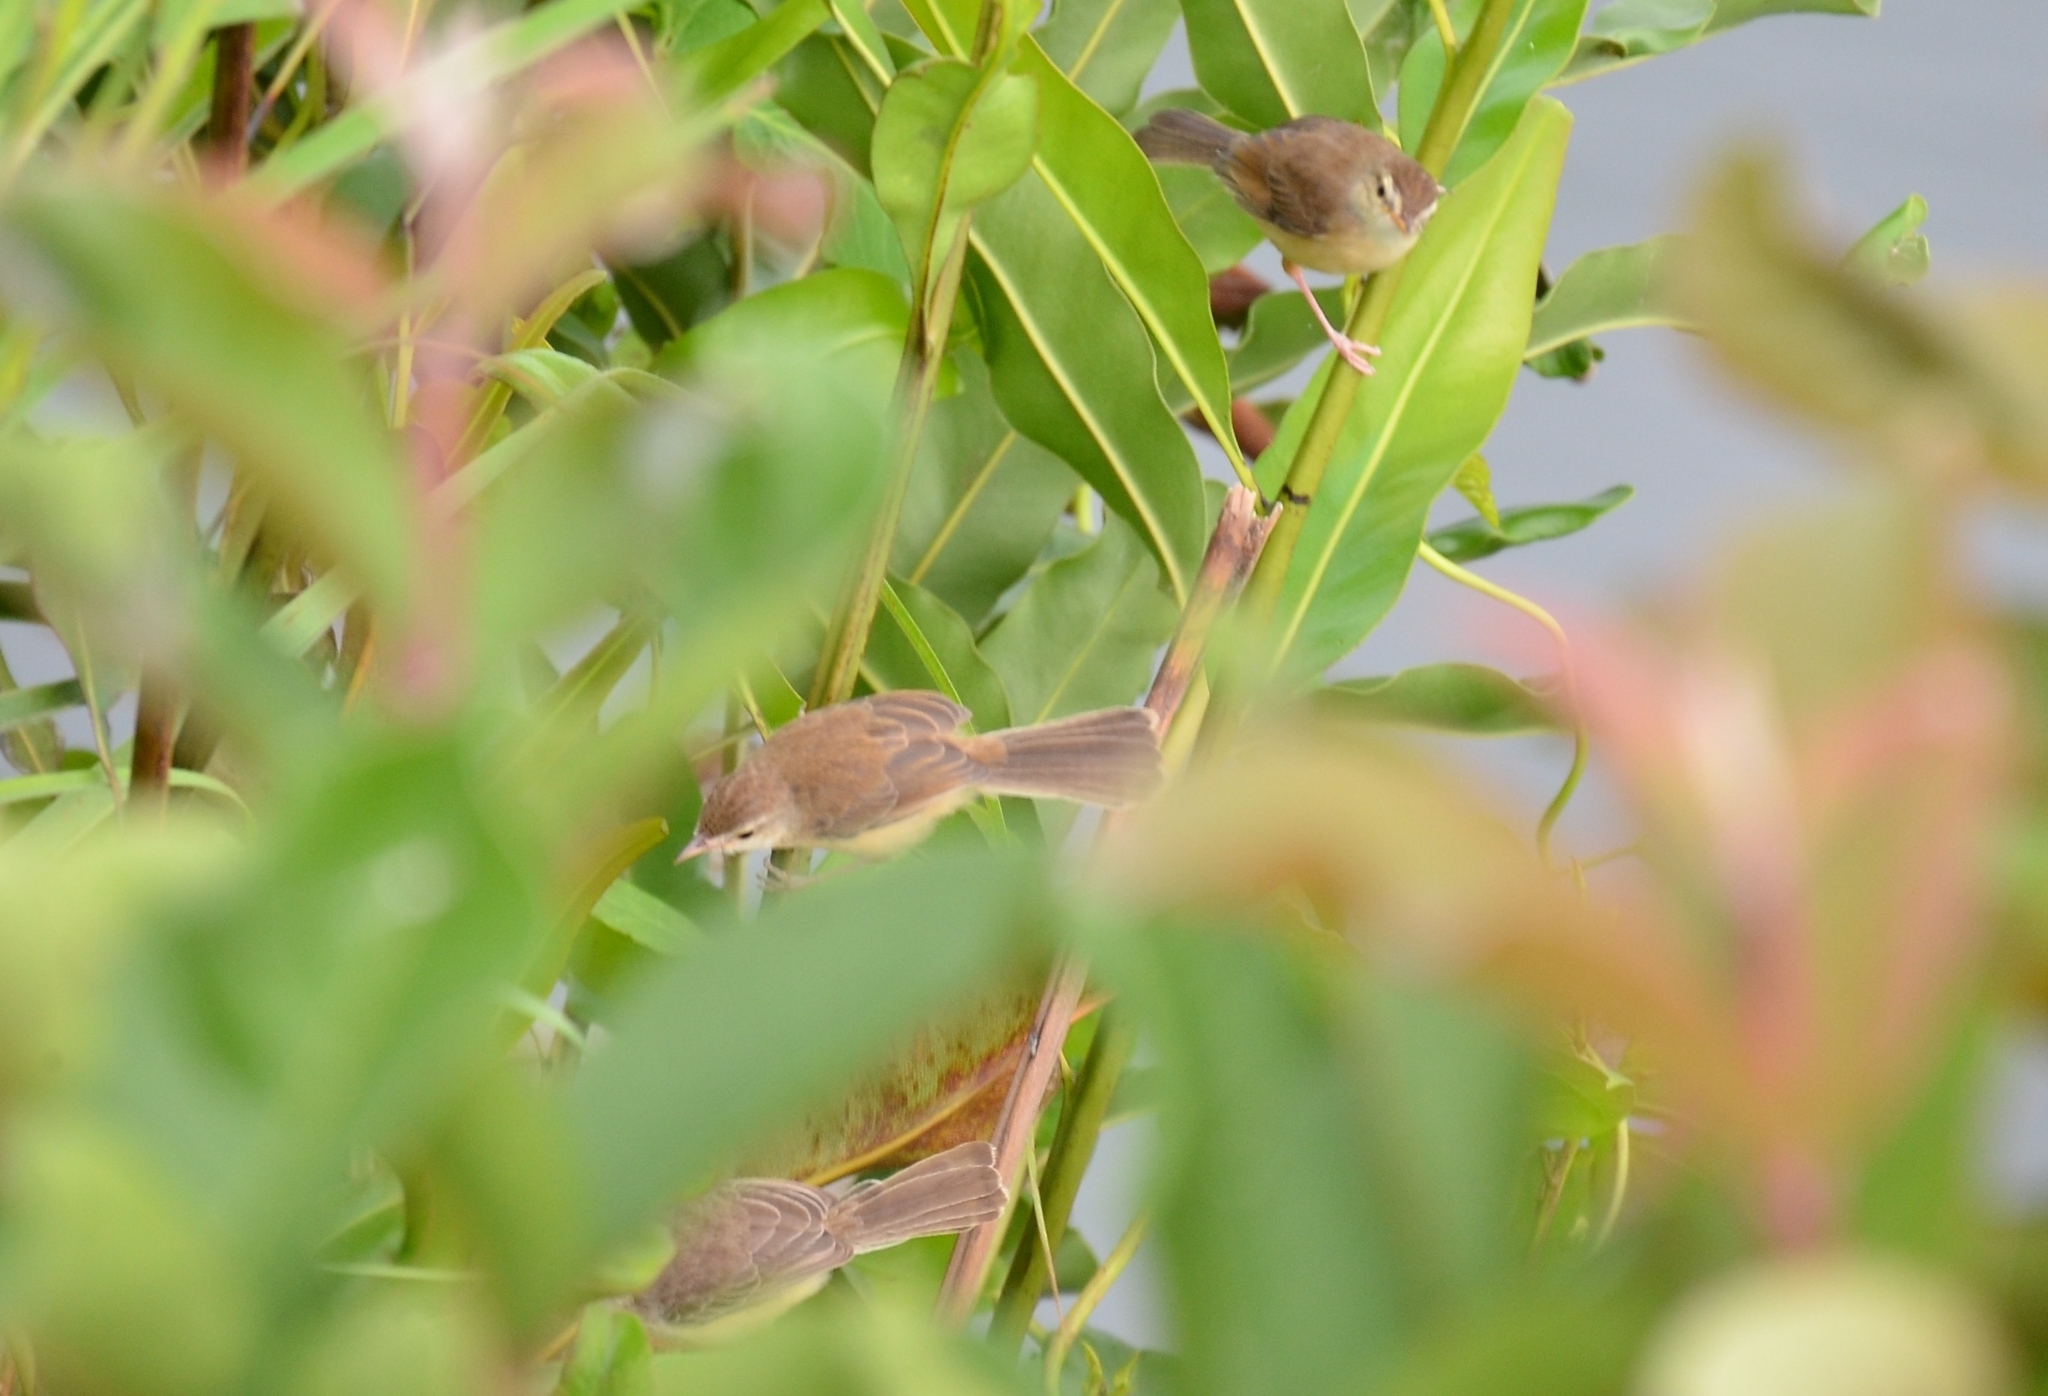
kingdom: Animalia
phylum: Chordata
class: Aves
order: Passeriformes
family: Cisticolidae
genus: Prinia
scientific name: Prinia inornata
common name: Plain prinia
